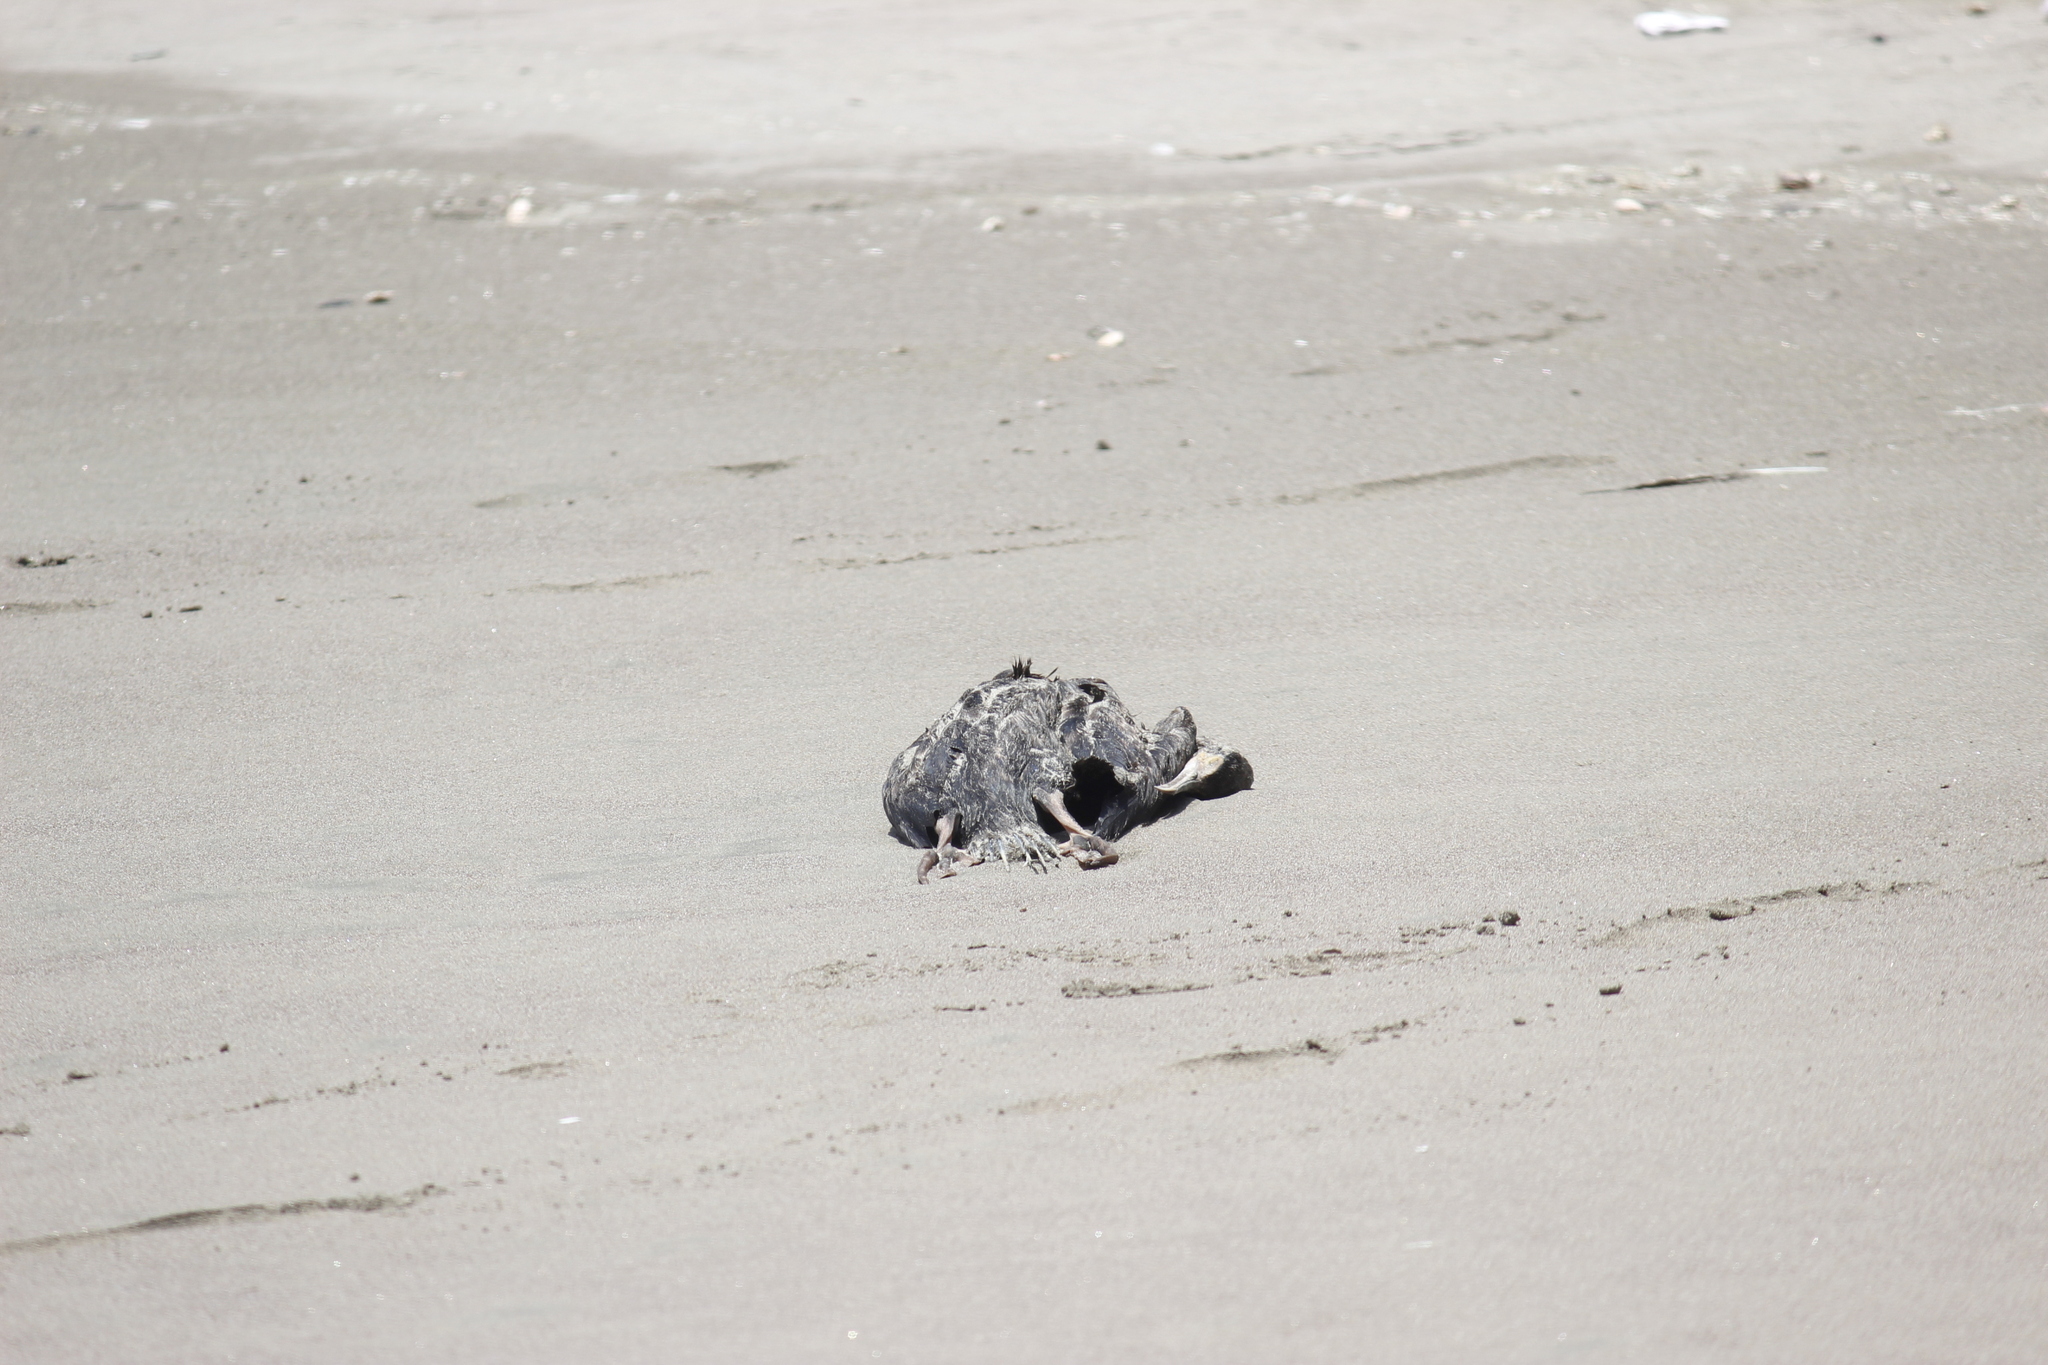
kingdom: Animalia
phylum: Chordata
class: Aves
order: Suliformes
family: Phalacrocoracidae
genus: Leucocarbo
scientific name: Leucocarbo bougainvillii
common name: Guanay cormorant
